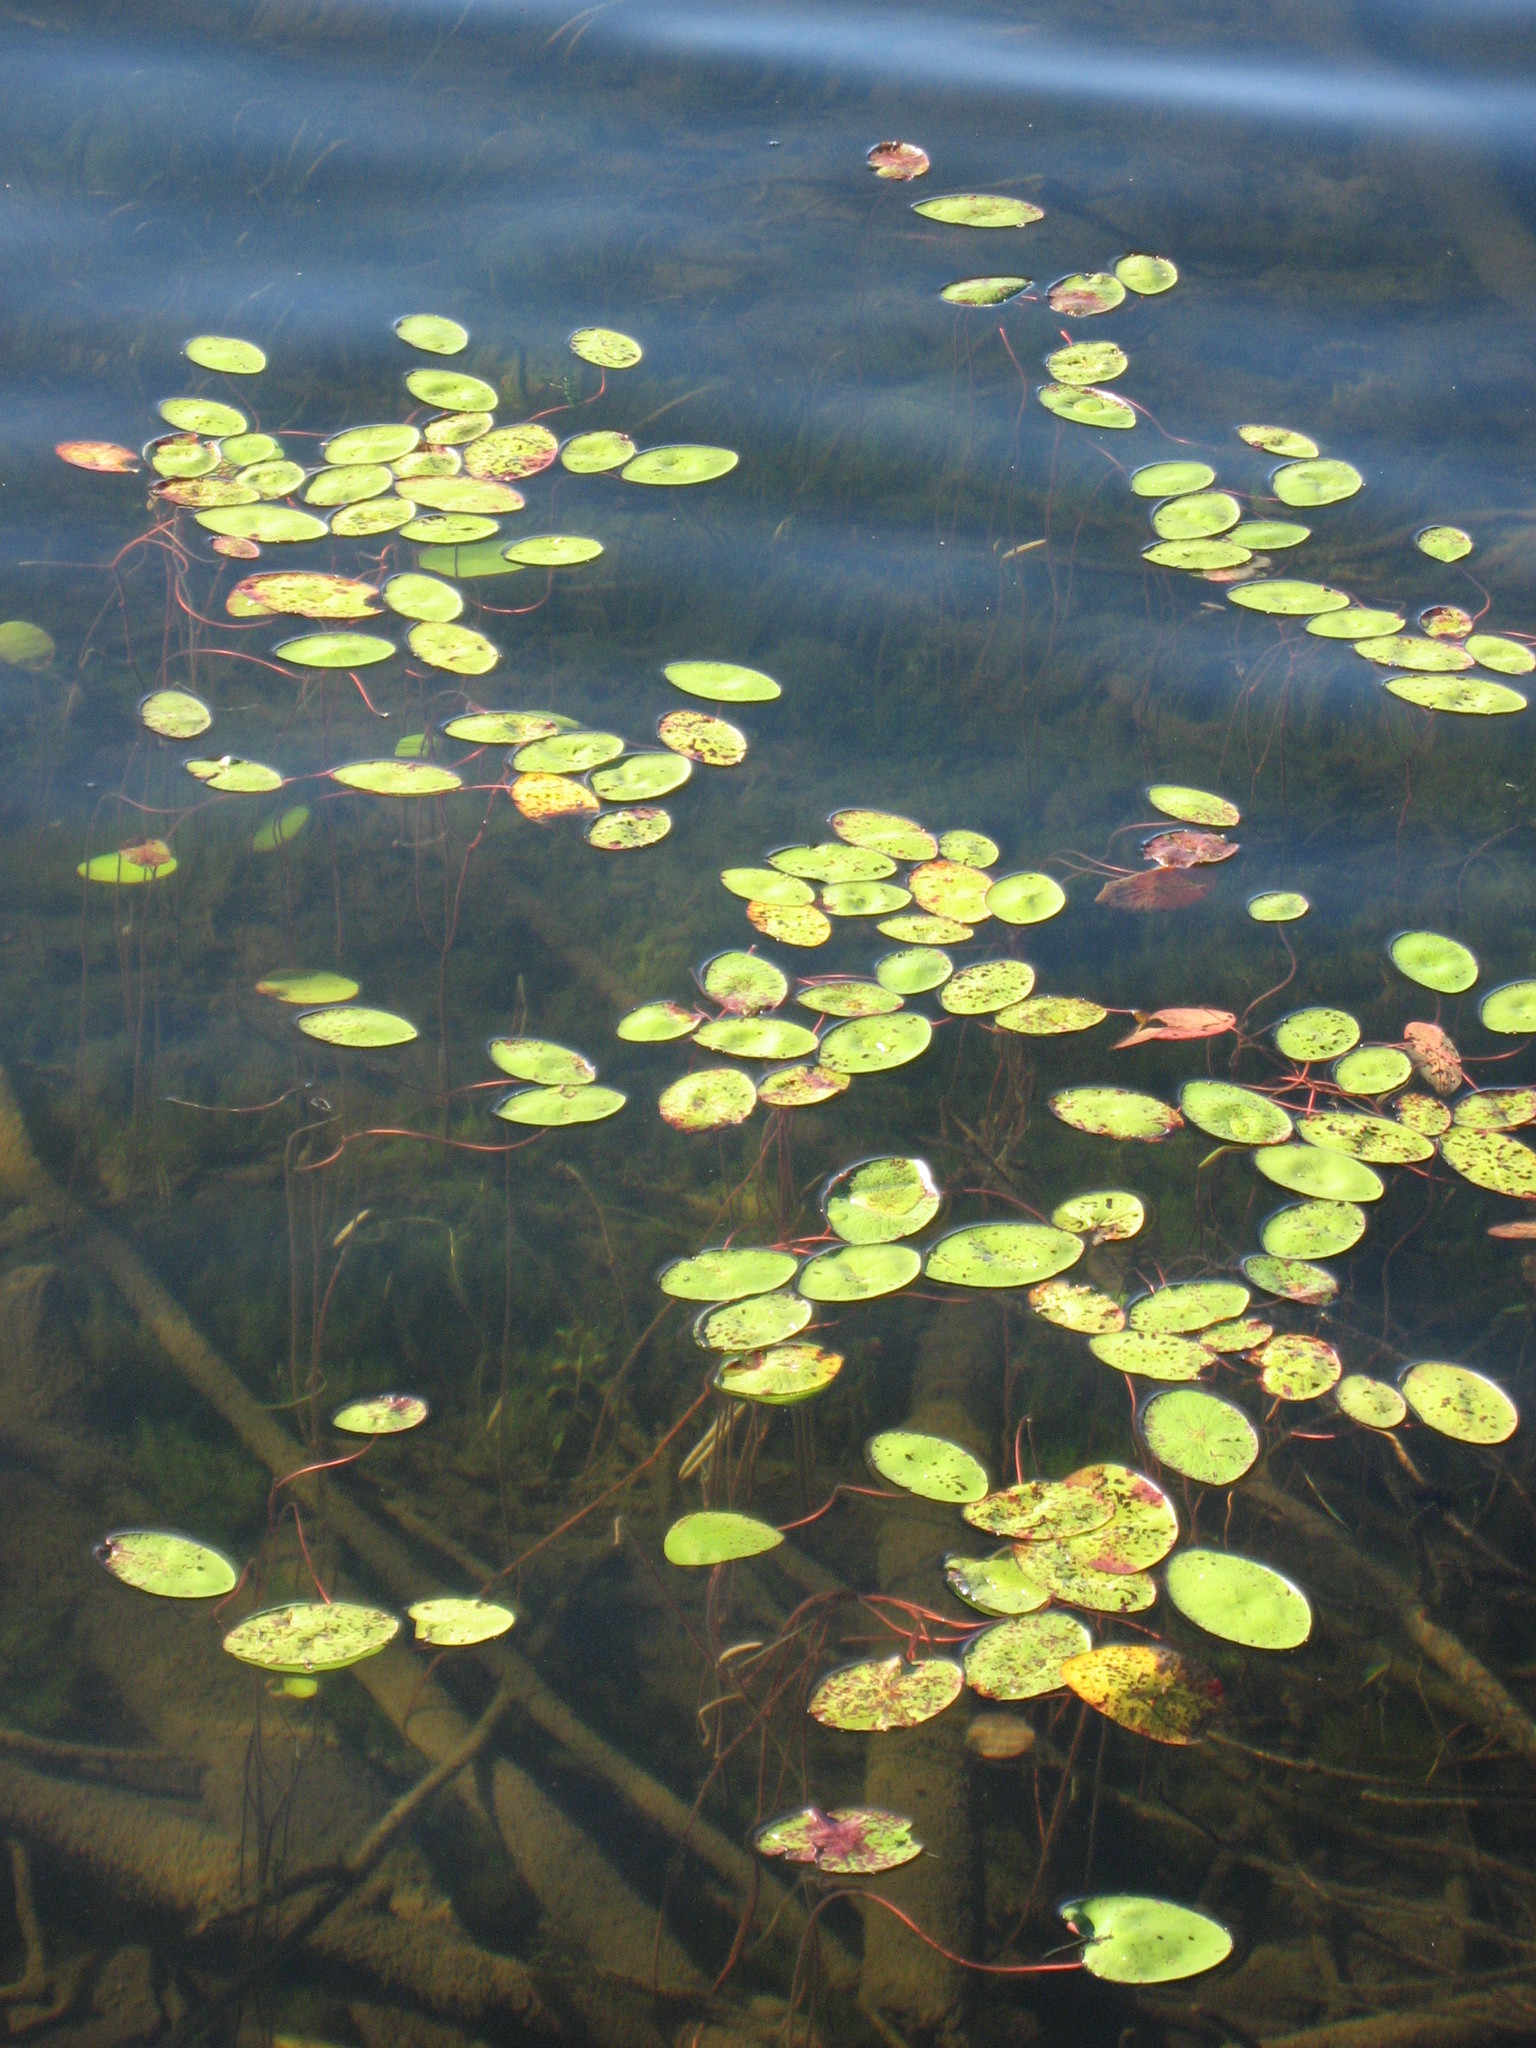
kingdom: Plantae
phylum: Tracheophyta
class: Magnoliopsida
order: Nymphaeales
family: Cabombaceae
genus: Brasenia
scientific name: Brasenia schreberi
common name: Water-shield
